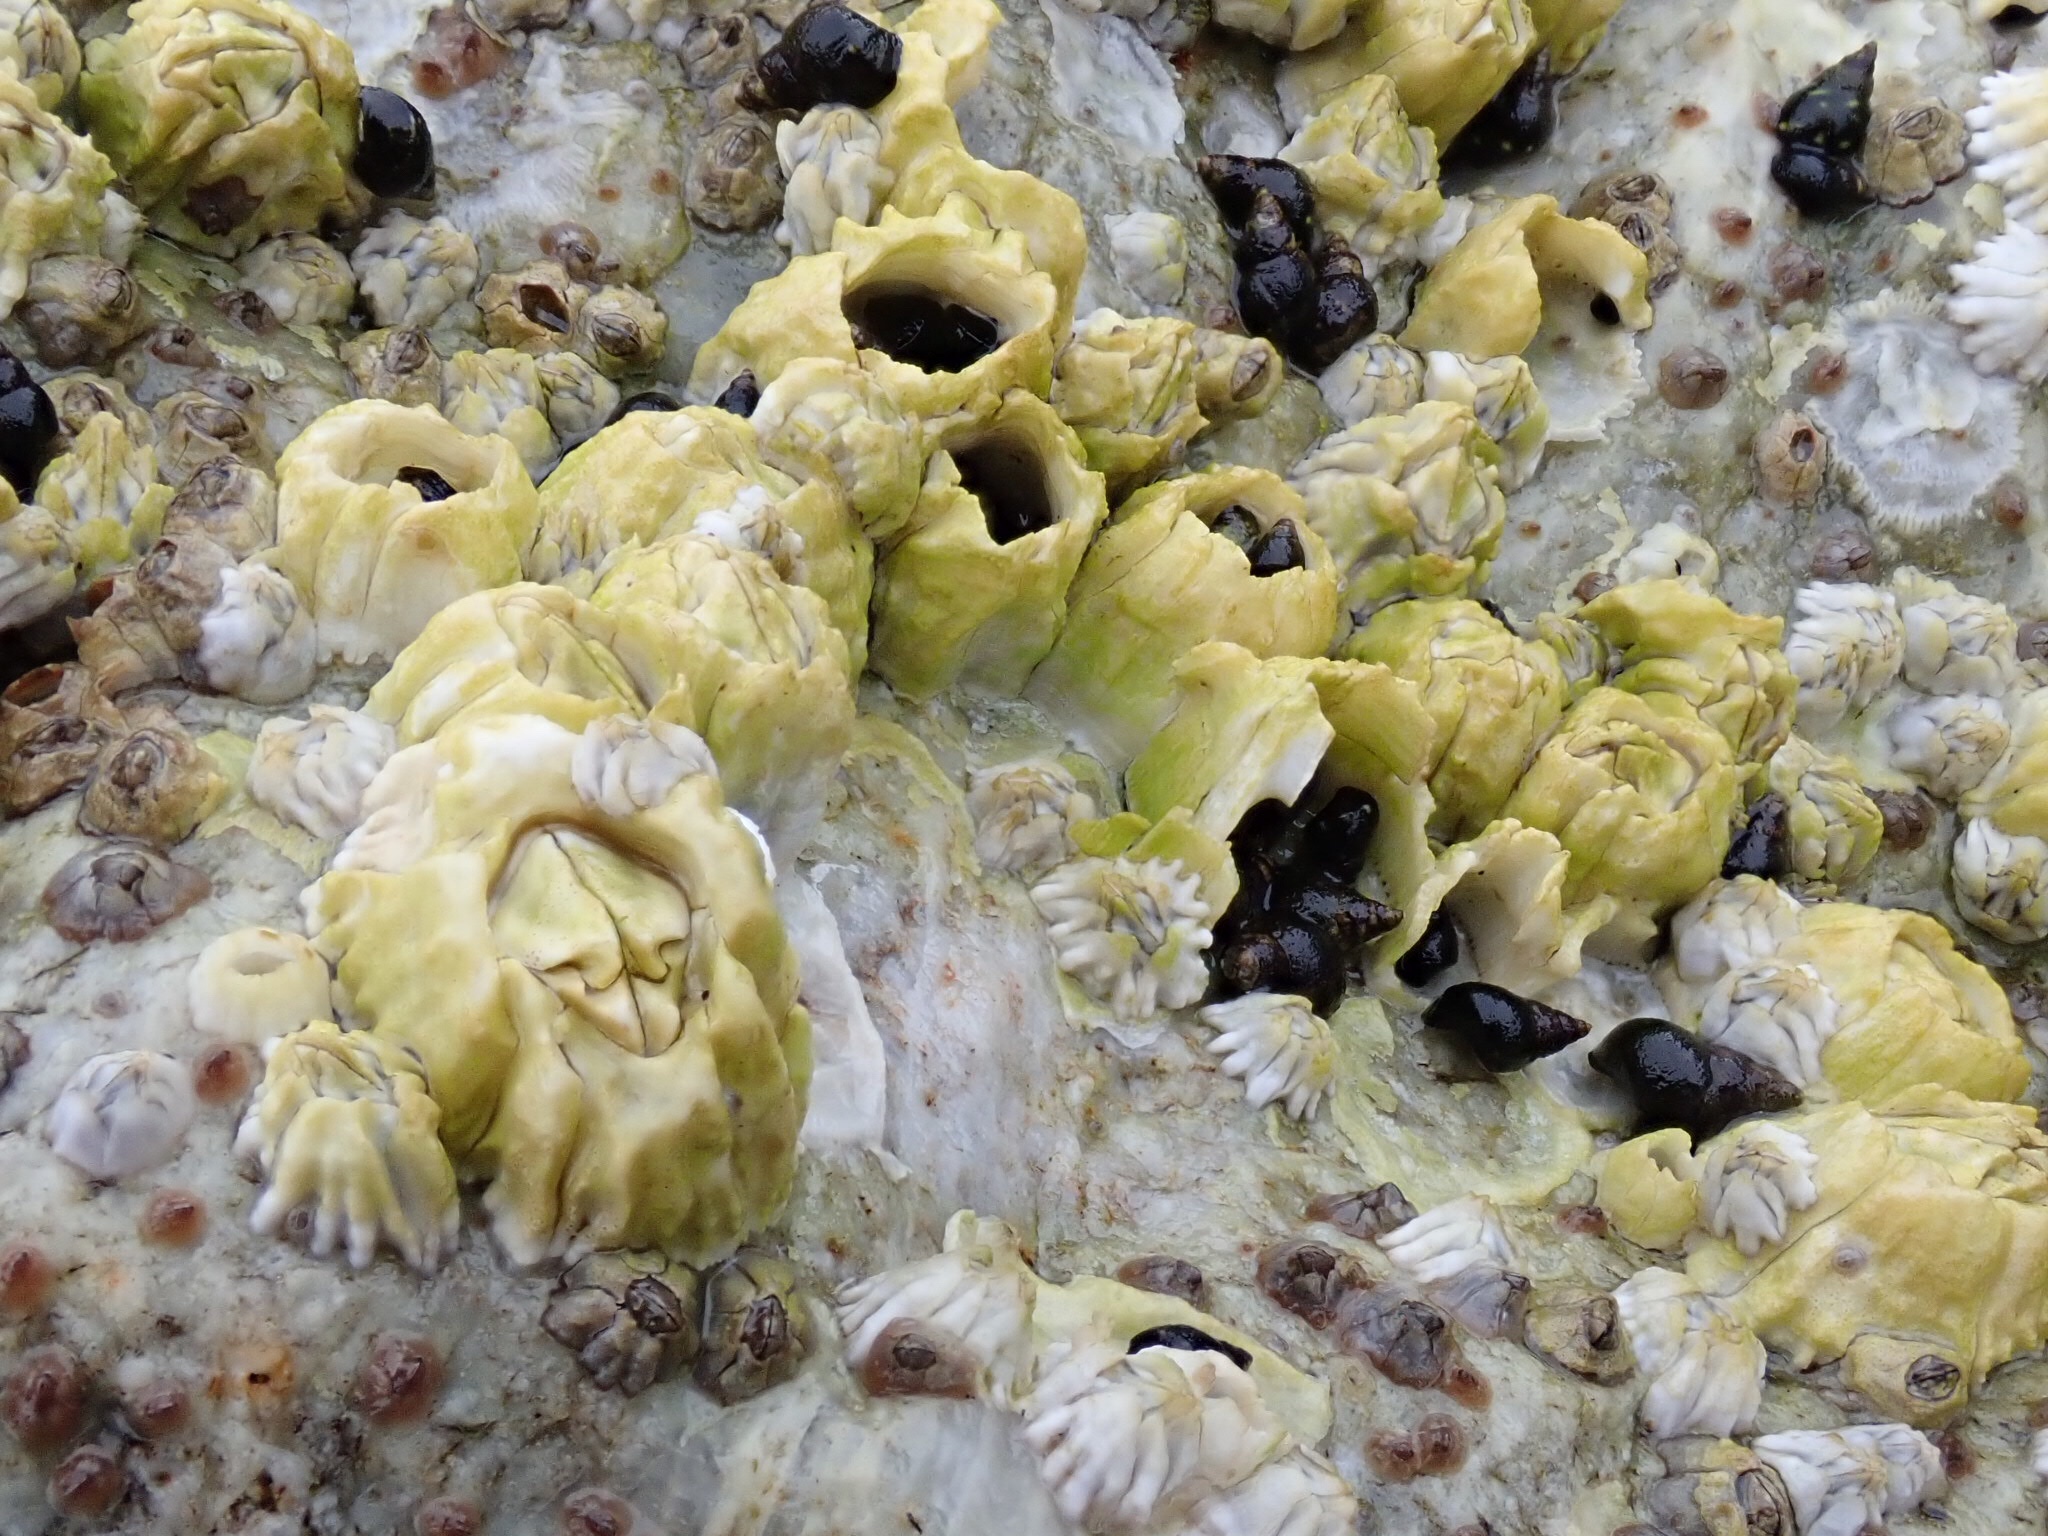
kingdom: Animalia
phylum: Arthropoda
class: Maxillopoda
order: Sessilia
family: Balanidae
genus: Balanus
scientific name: Balanus glandula
